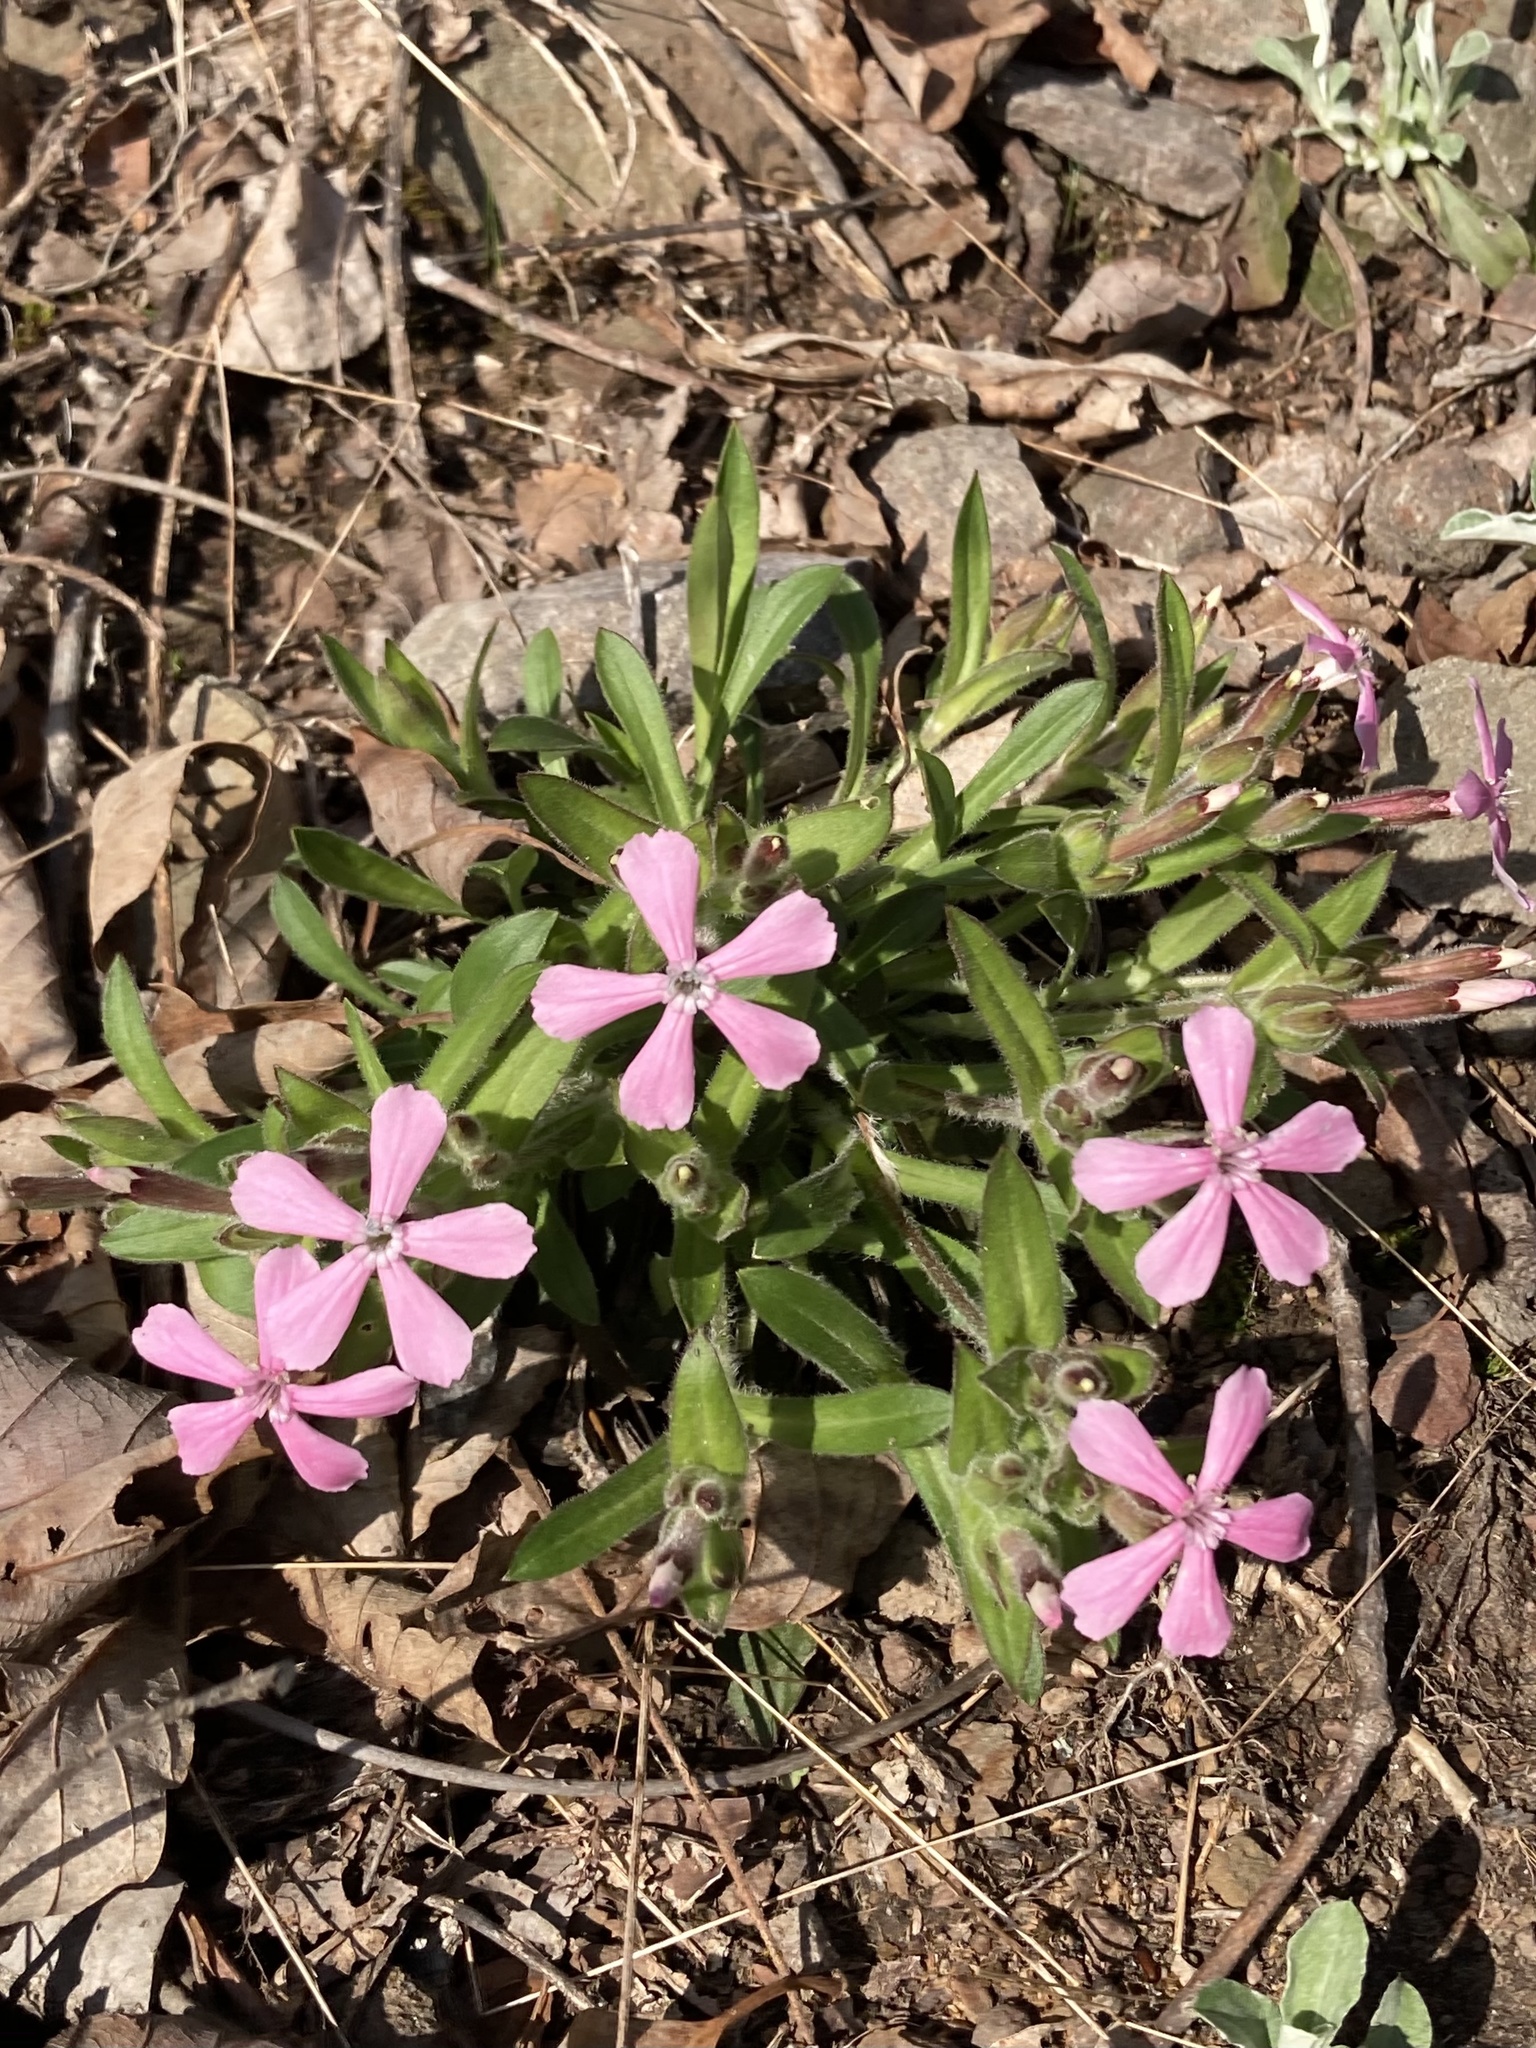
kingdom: Plantae
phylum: Tracheophyta
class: Magnoliopsida
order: Caryophyllales
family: Caryophyllaceae
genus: Silene
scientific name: Silene caroliniana
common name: Sticky catchfly
